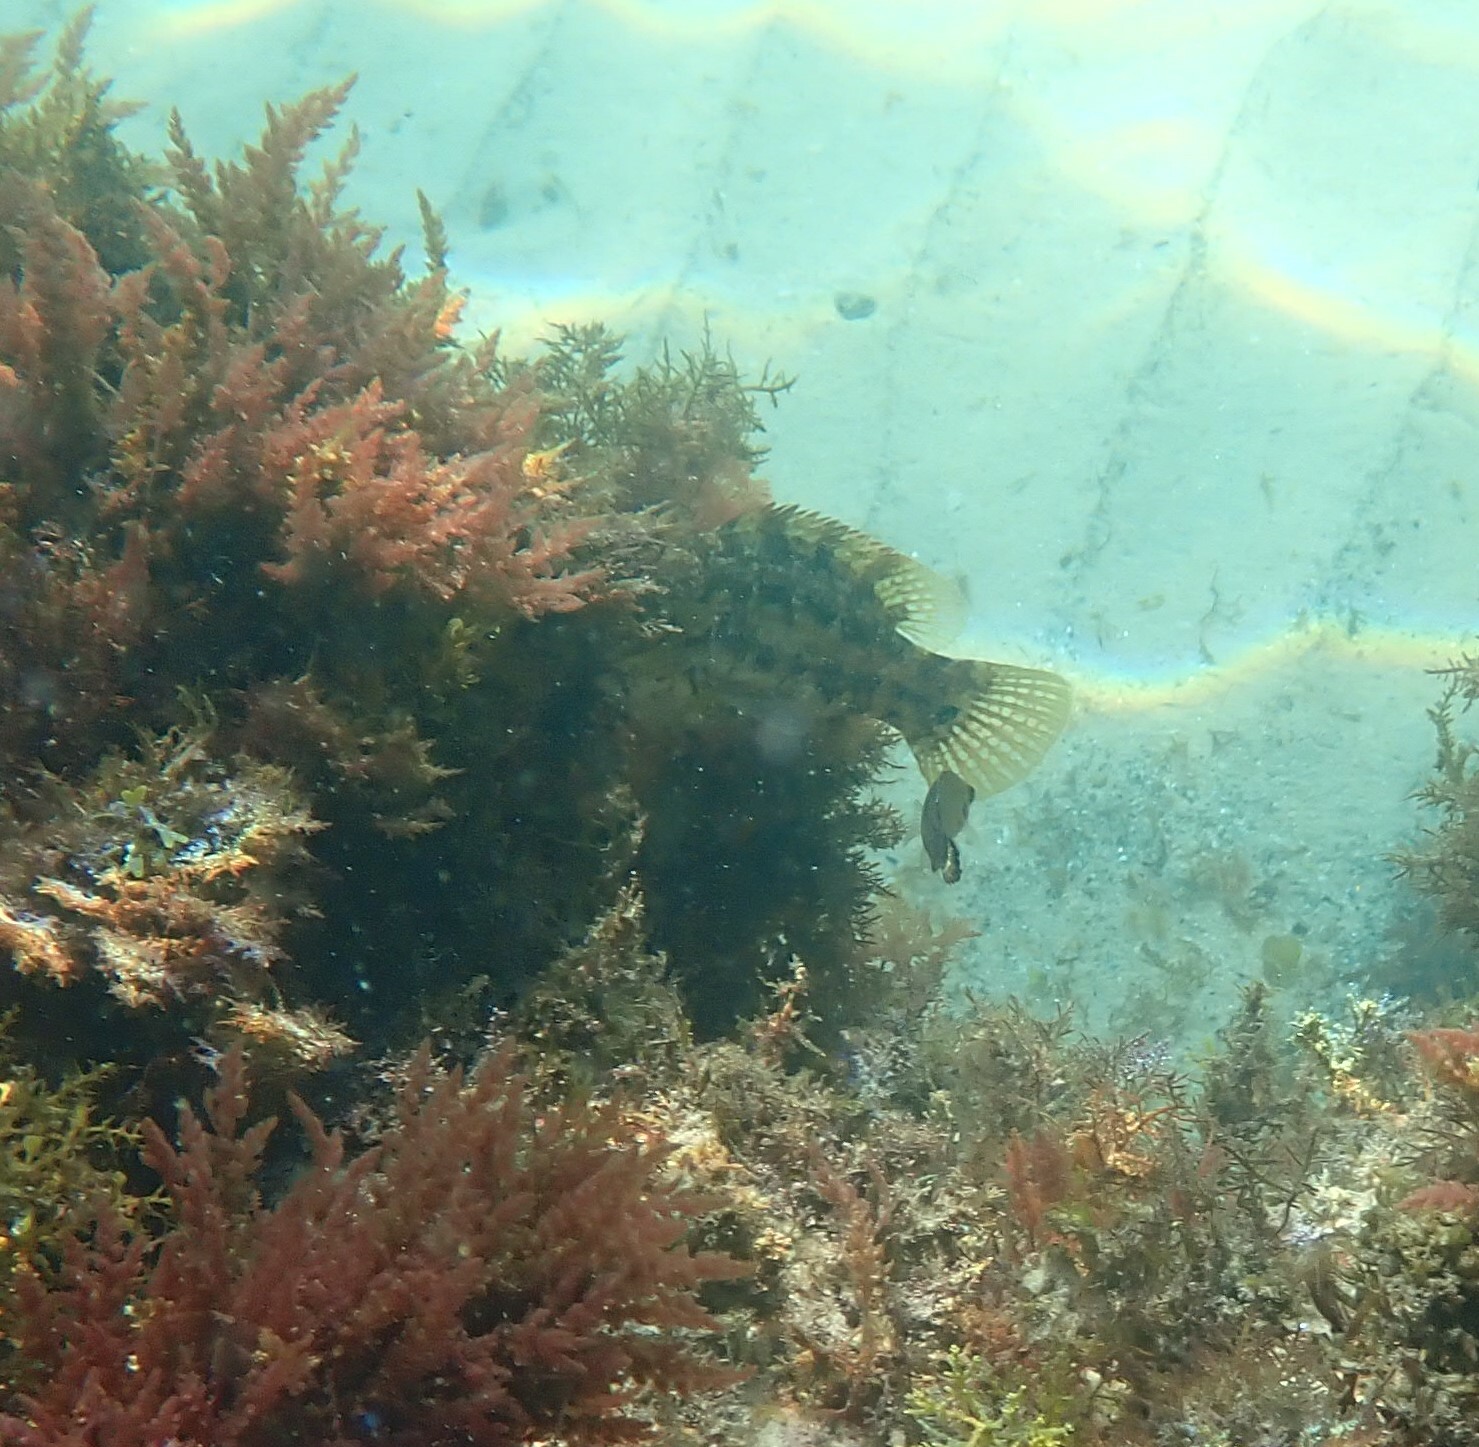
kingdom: Animalia
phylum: Chordata
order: Perciformes
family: Labridae
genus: Symphodus
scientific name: Symphodus melops
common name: Corkwing
